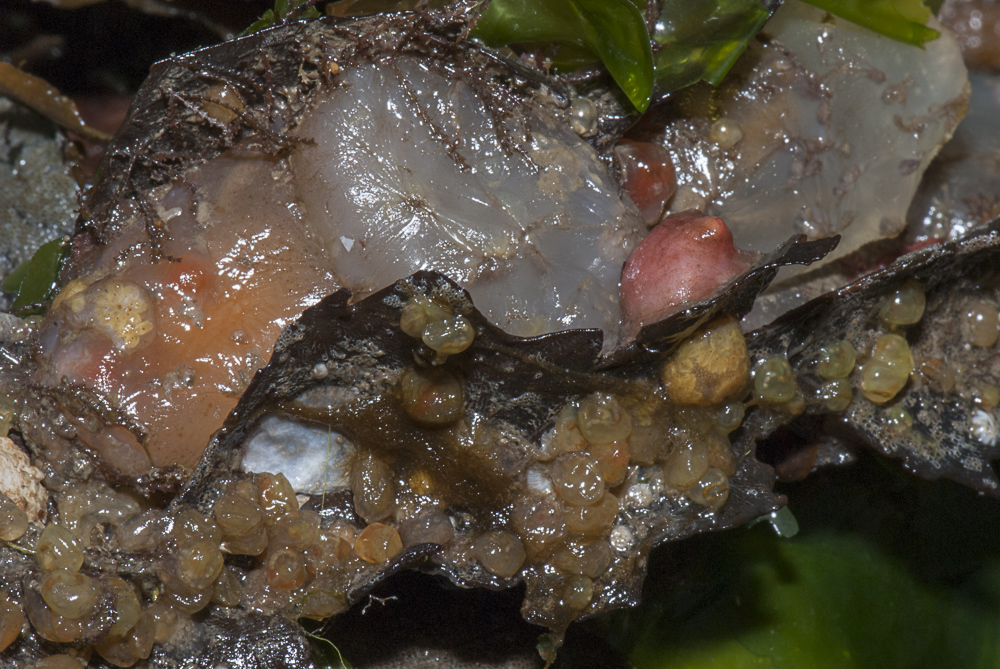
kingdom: Animalia
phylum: Chordata
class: Ascidiacea
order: Phlebobranchia
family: Perophoridae
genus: Perophora
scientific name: Perophora japonica
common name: Colonial sea squirt
